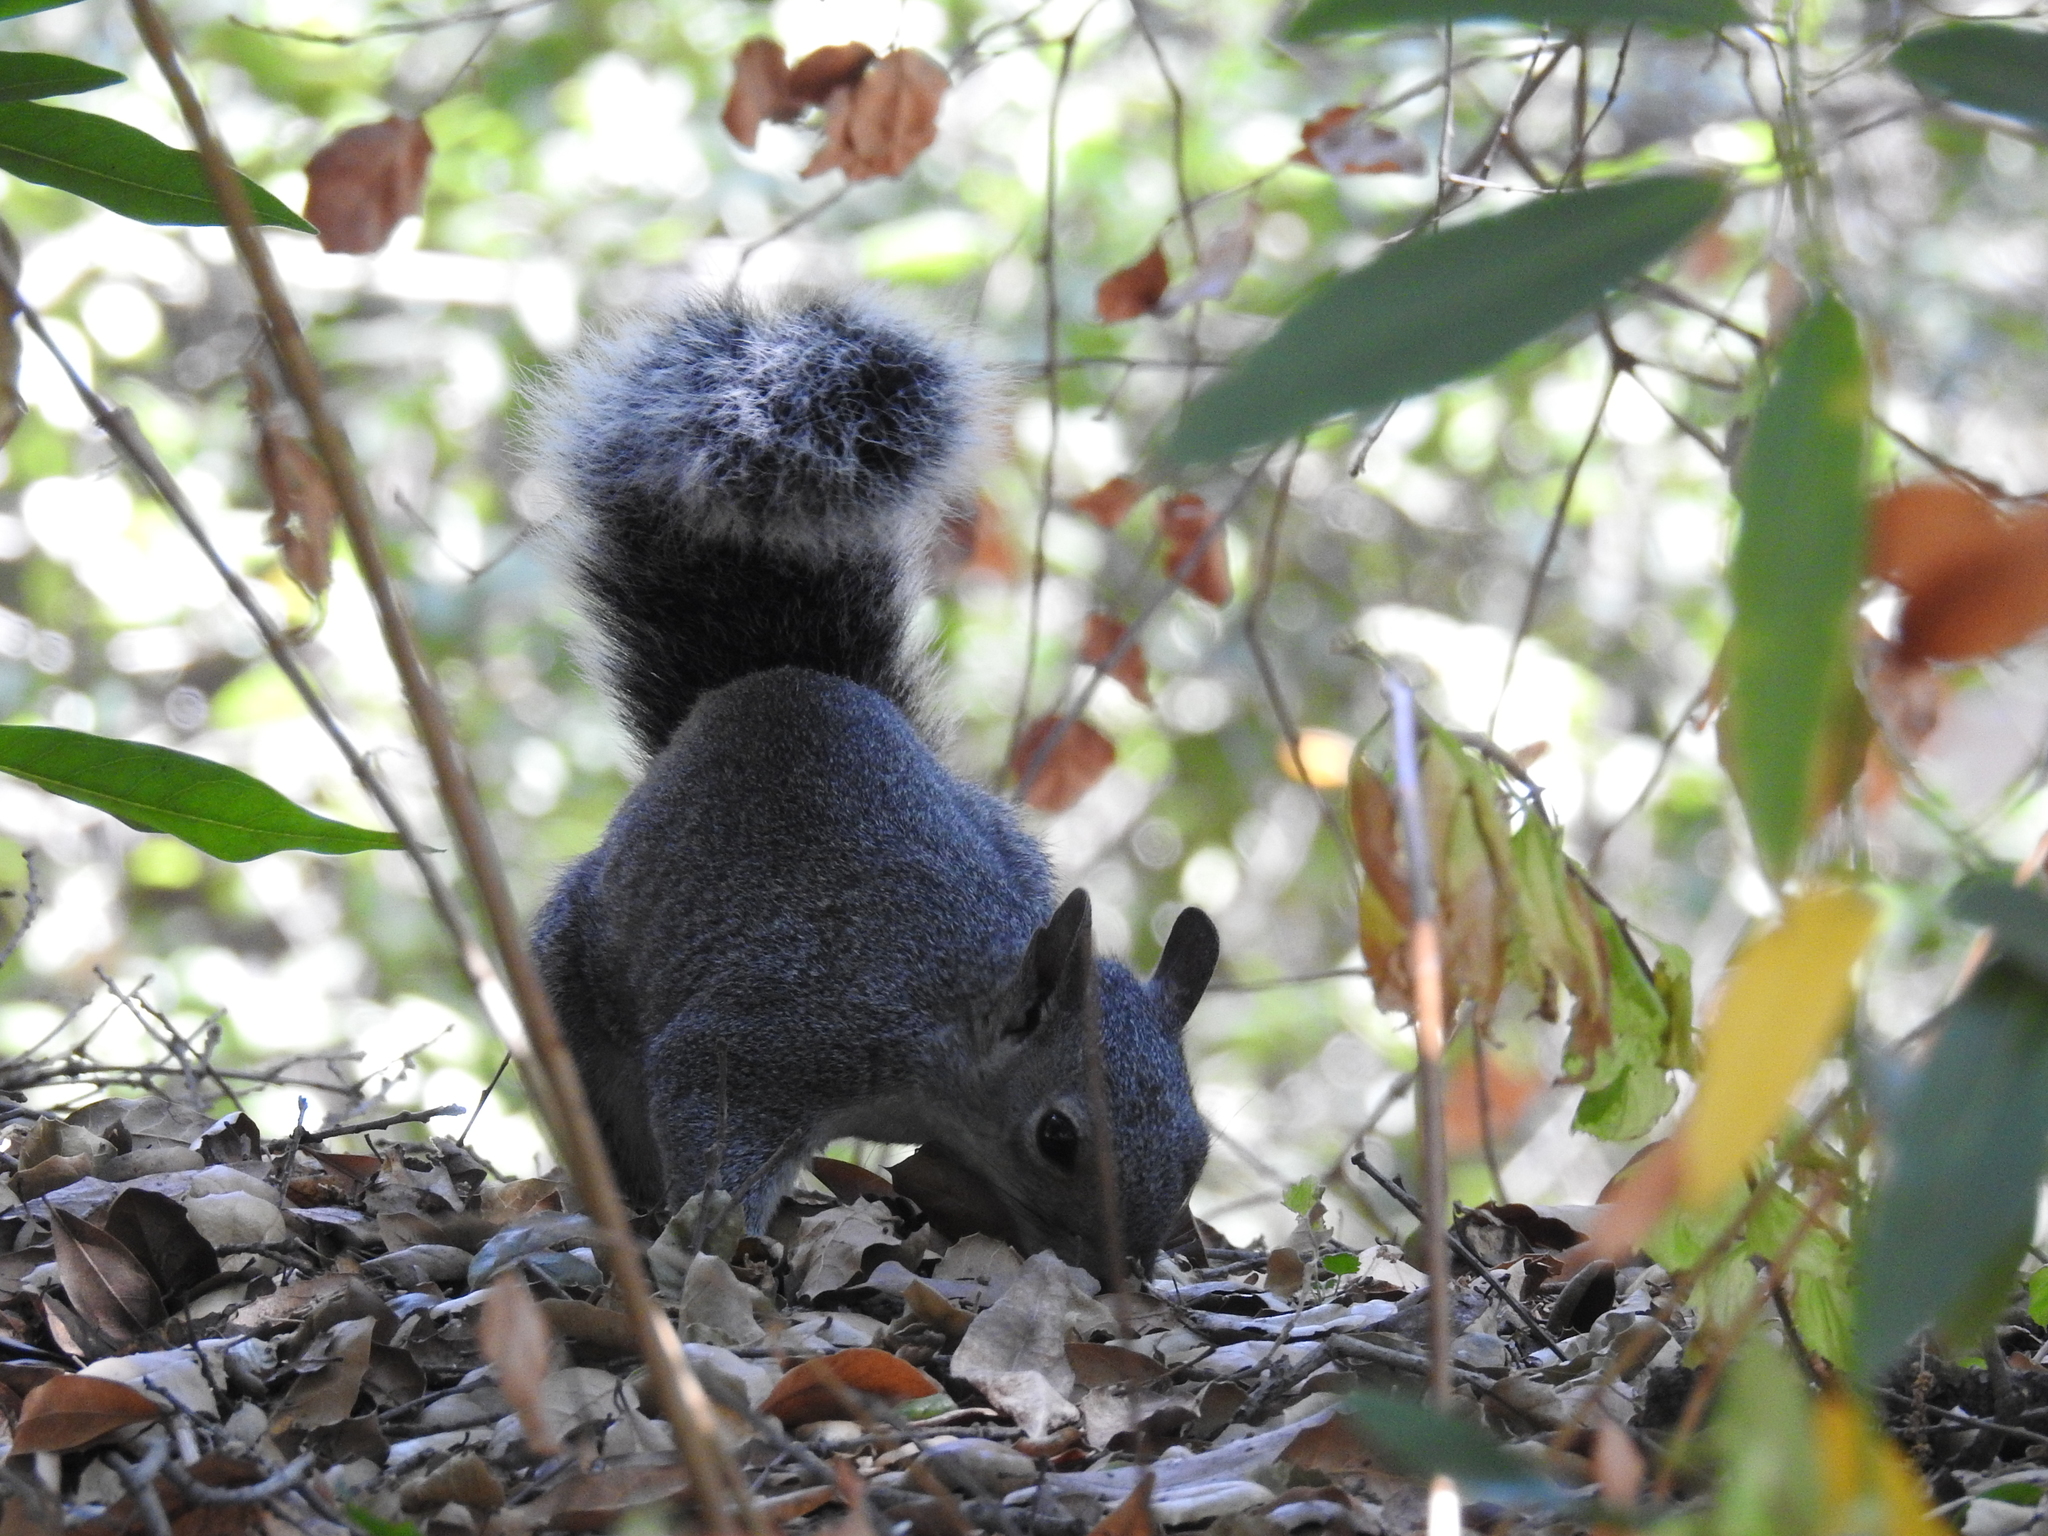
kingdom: Animalia
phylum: Chordata
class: Mammalia
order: Rodentia
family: Sciuridae
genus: Sciurus
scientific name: Sciurus griseus
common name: Western gray squirrel
